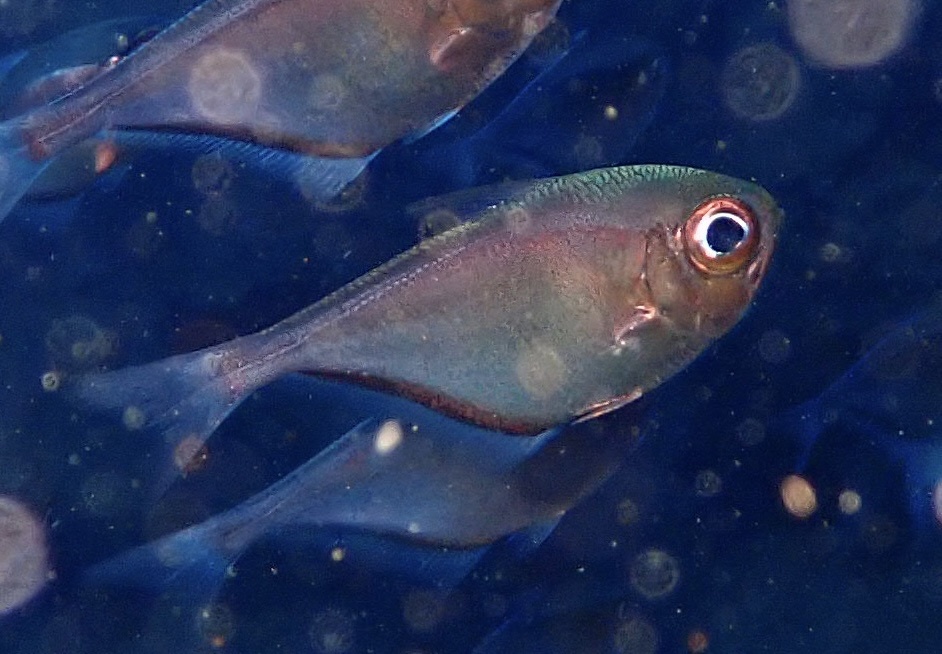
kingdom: Animalia
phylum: Chordata
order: Perciformes
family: Pempheridae
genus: Pempheris
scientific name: Pempheris schomburgkii
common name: Glassy sweeper
